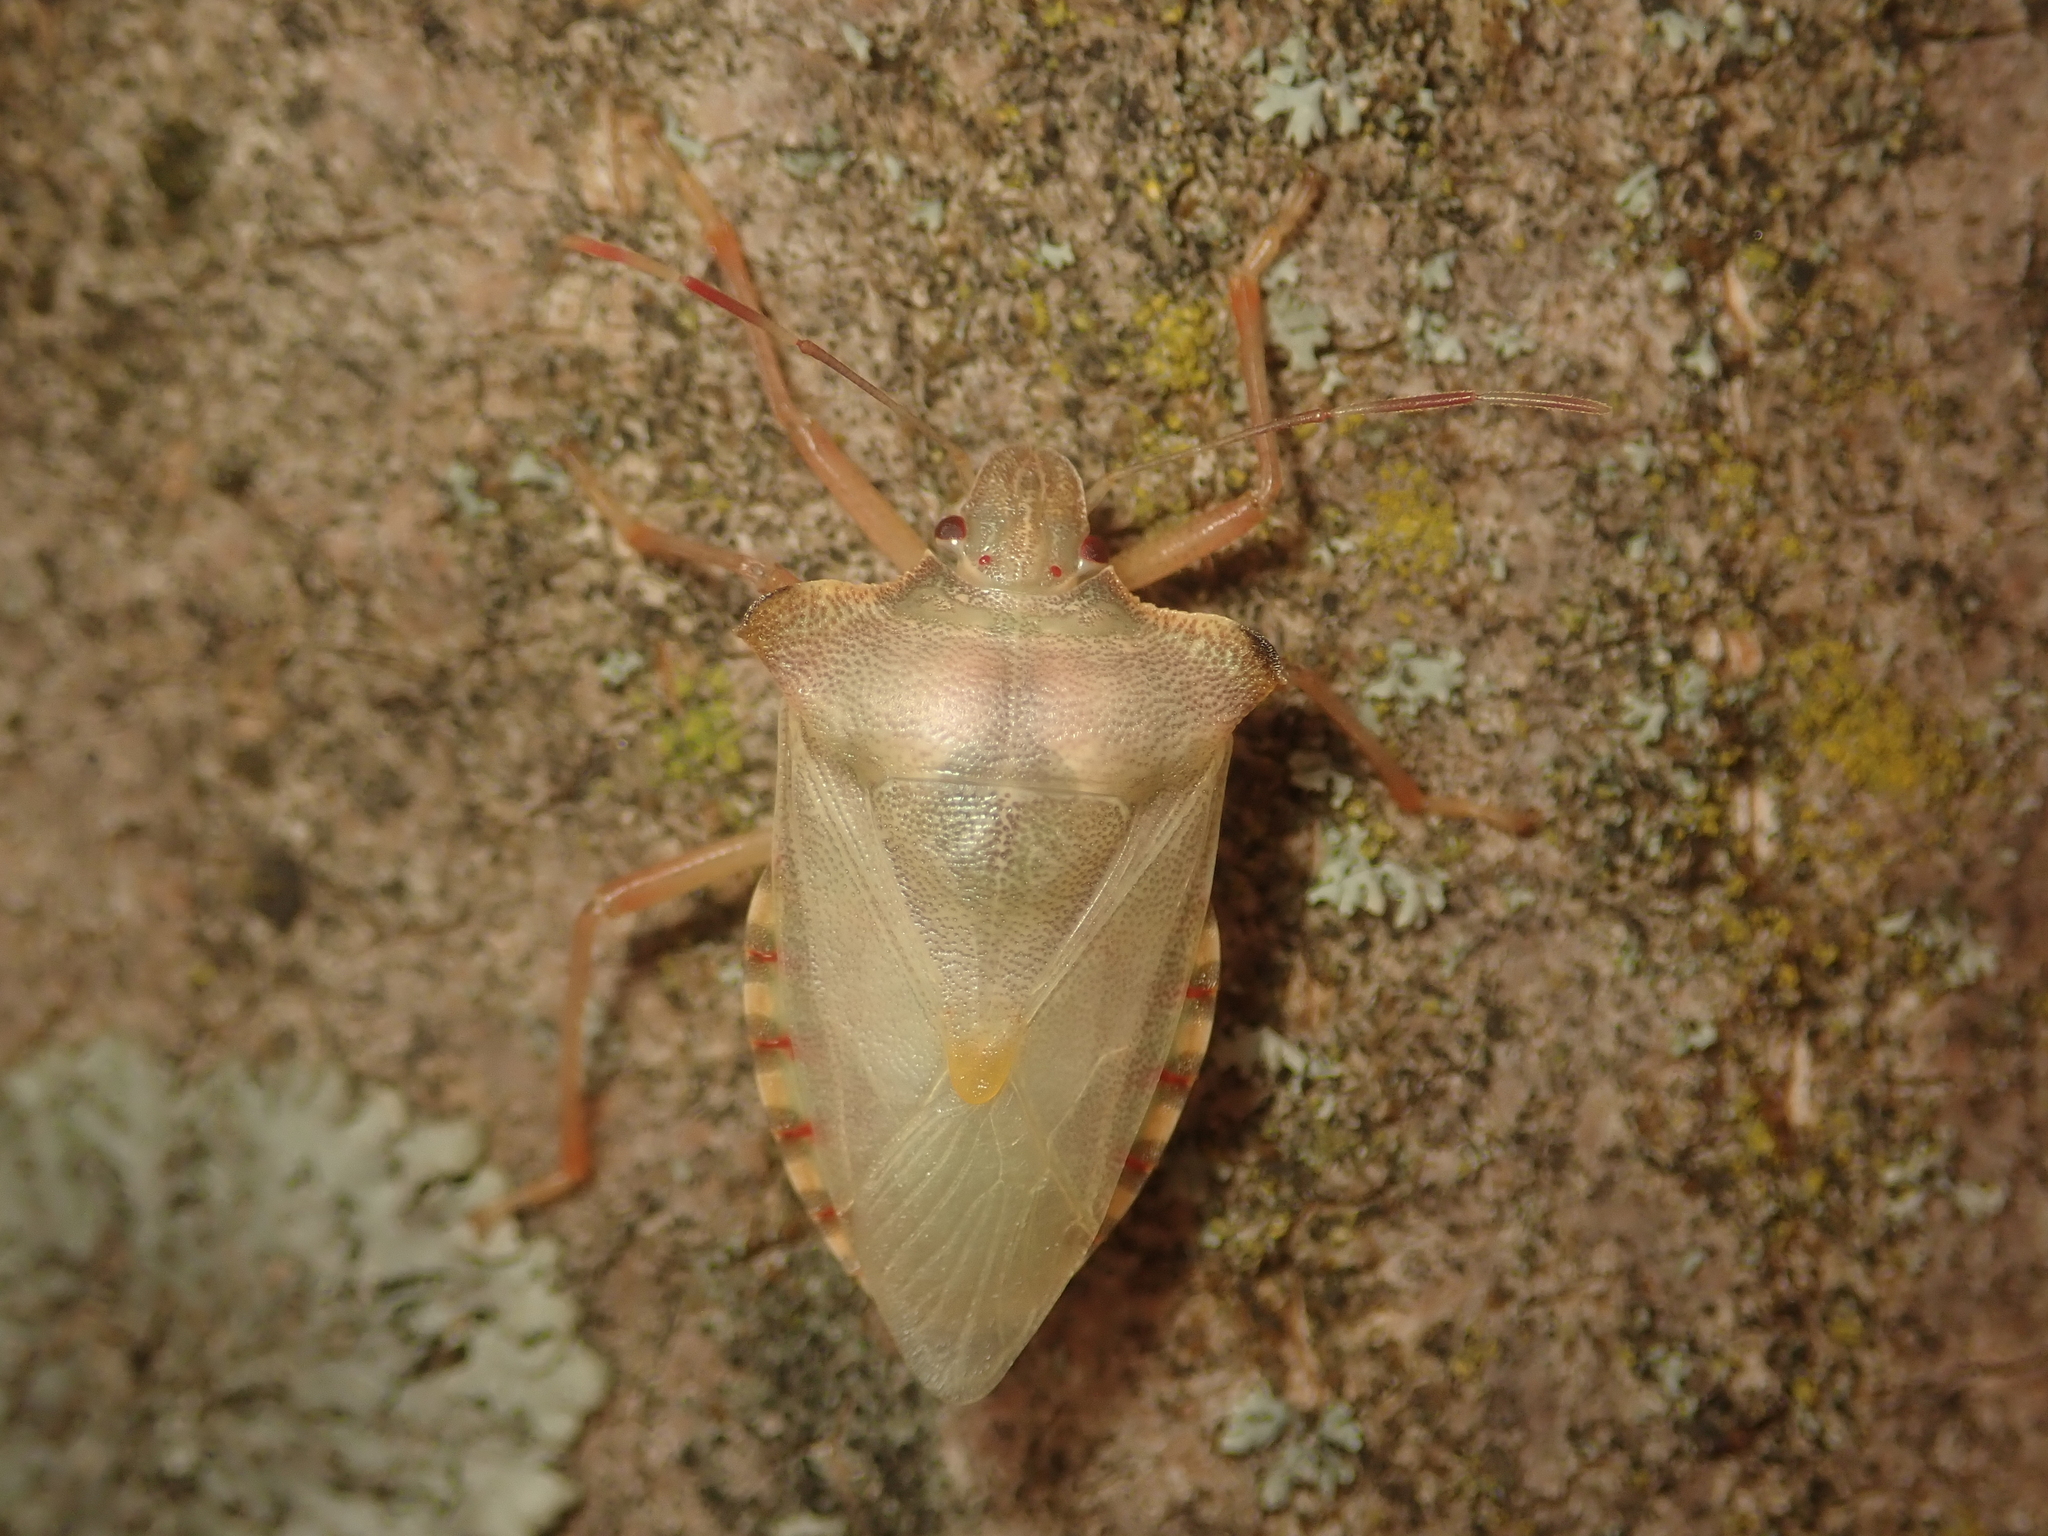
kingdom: Animalia
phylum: Arthropoda
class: Insecta
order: Hemiptera
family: Pentatomidae
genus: Pentatoma
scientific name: Pentatoma rufipes
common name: Forest bug
